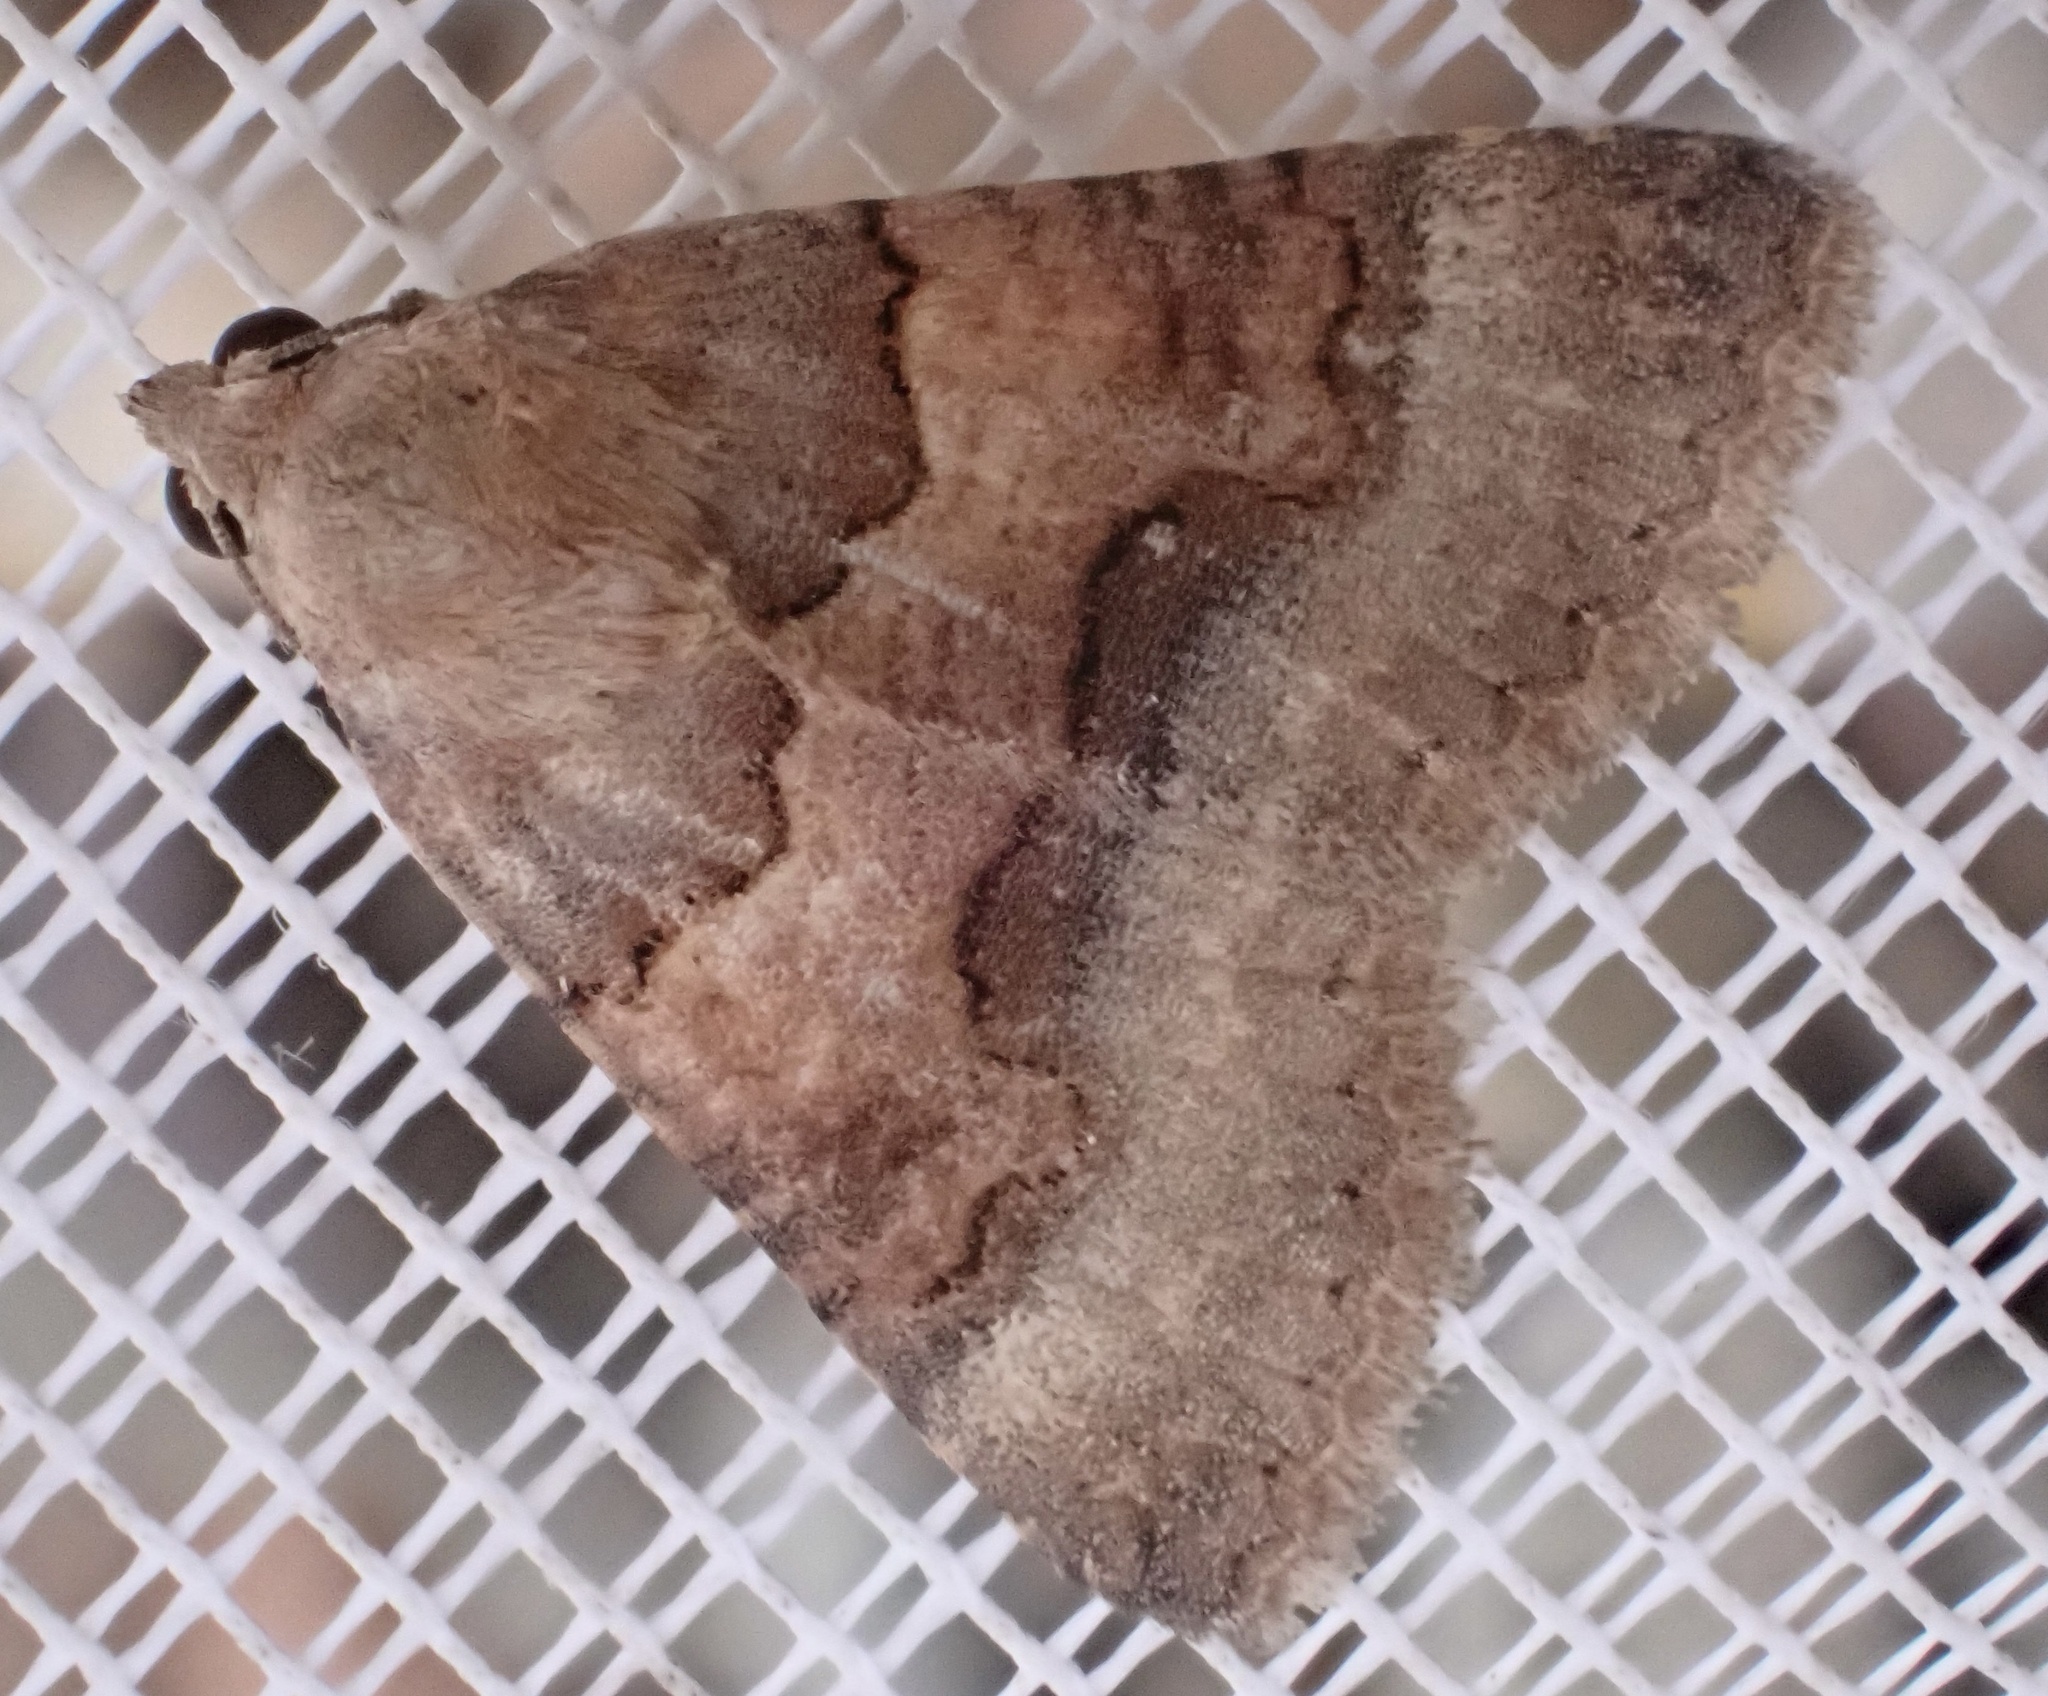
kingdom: Animalia
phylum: Arthropoda
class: Insecta
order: Lepidoptera
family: Erebidae
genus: Tytroca
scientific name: Tytroca dispar
